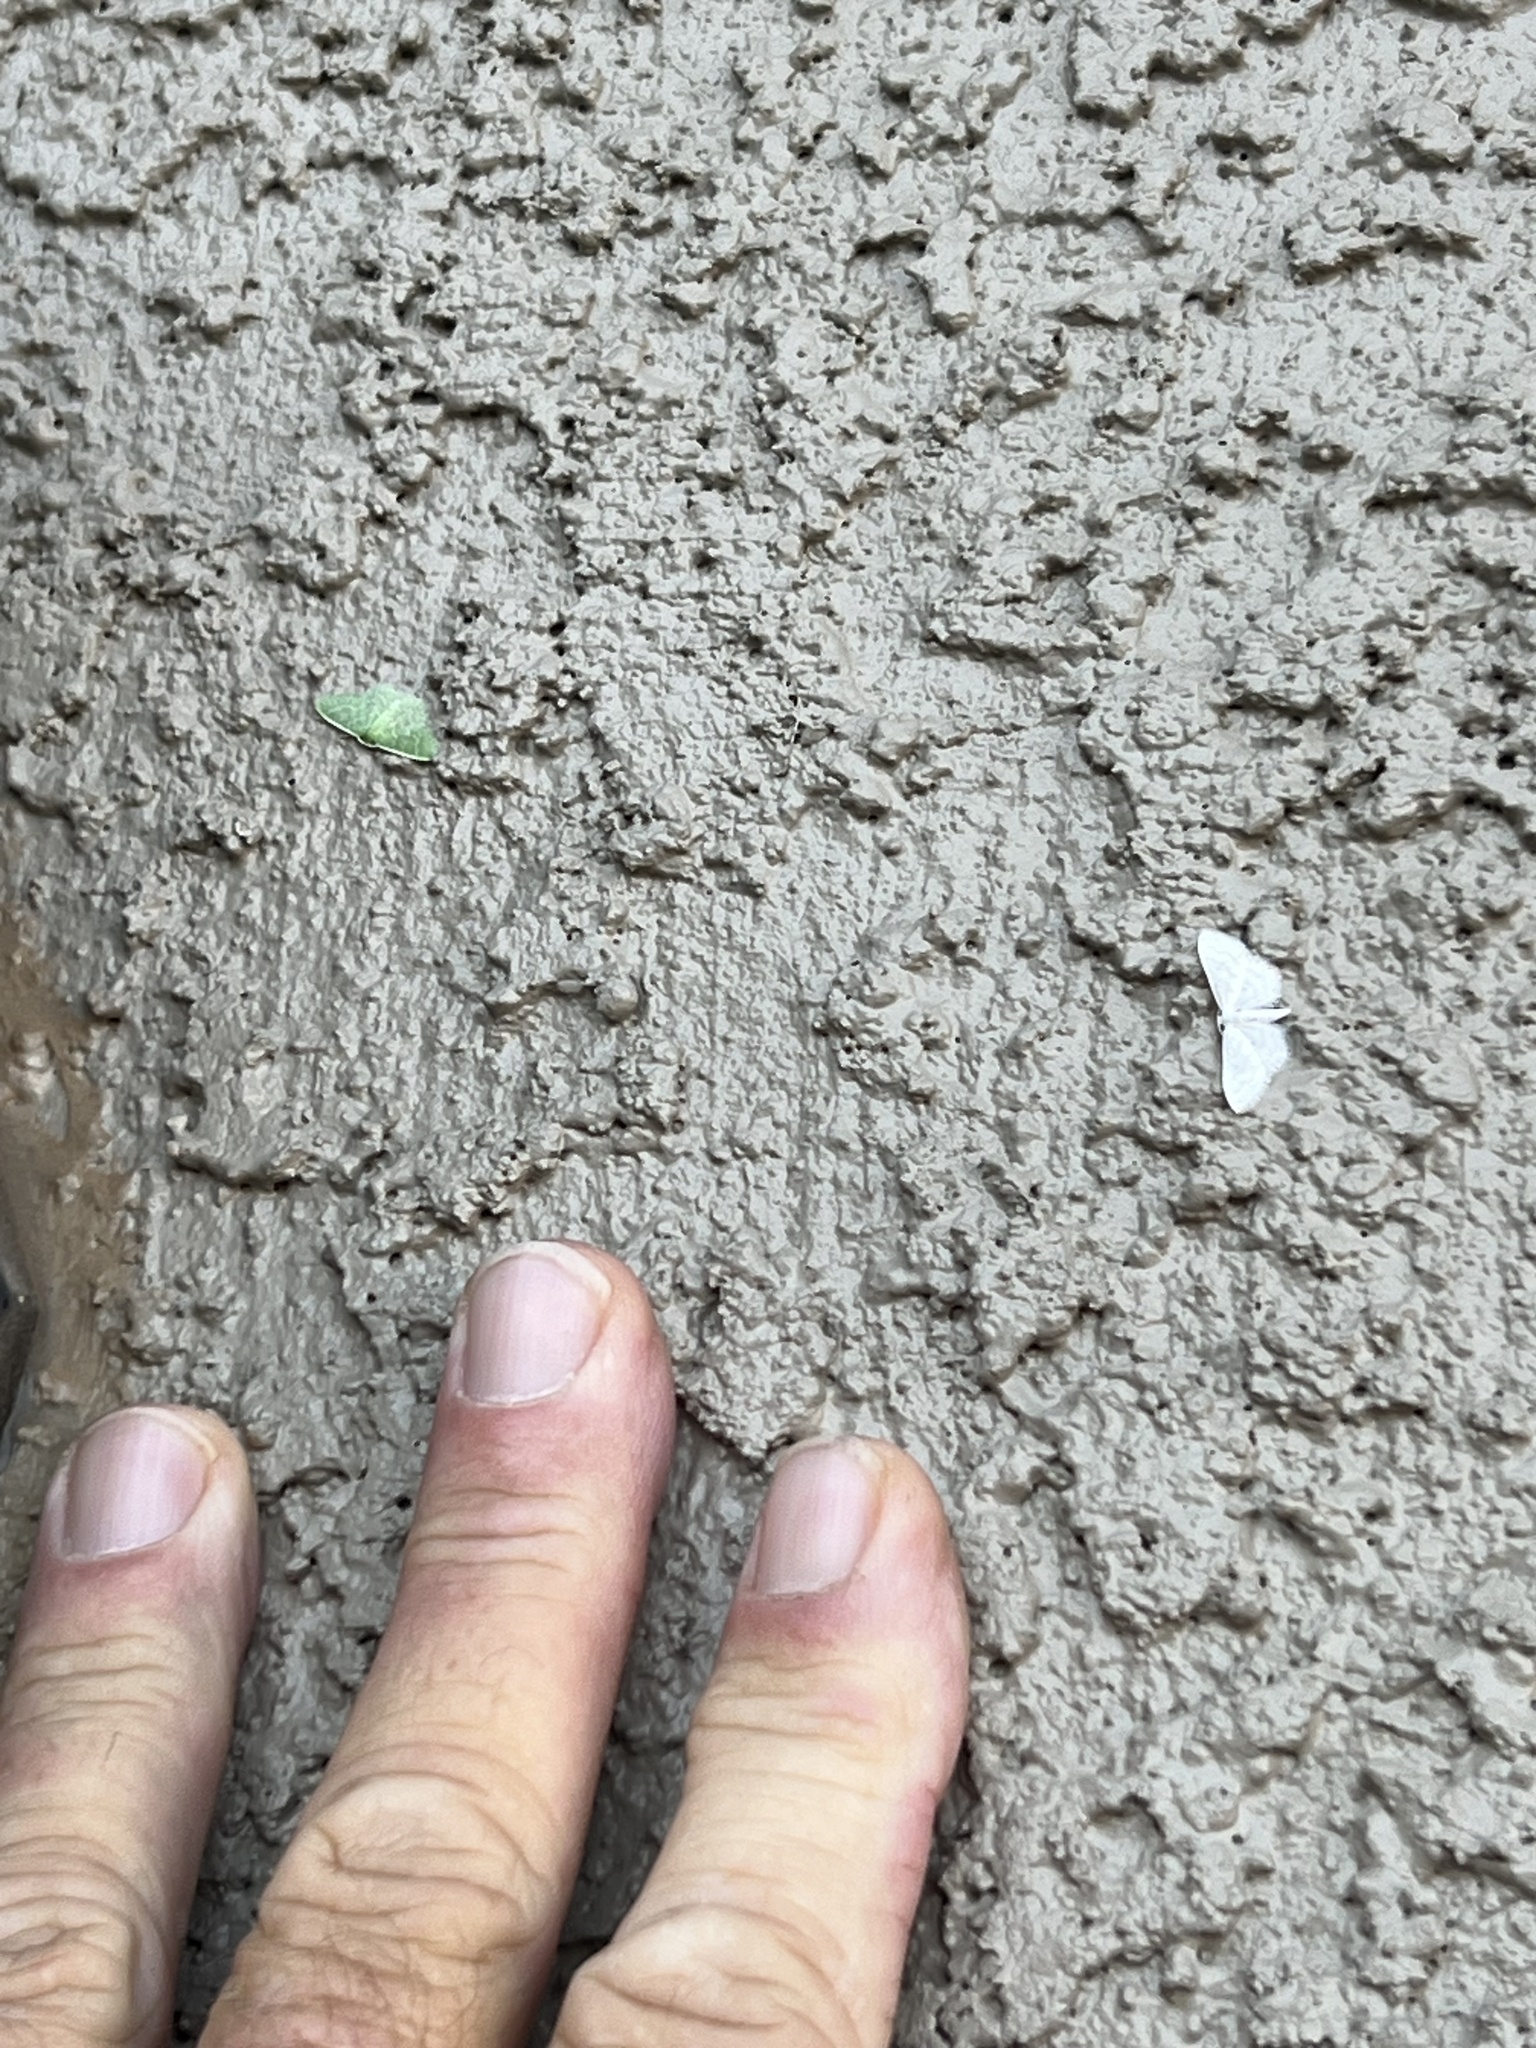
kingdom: Animalia
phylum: Arthropoda
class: Insecta
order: Lepidoptera
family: Geometridae
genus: Synchlora
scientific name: Synchlora frondaria
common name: Southern emerald
